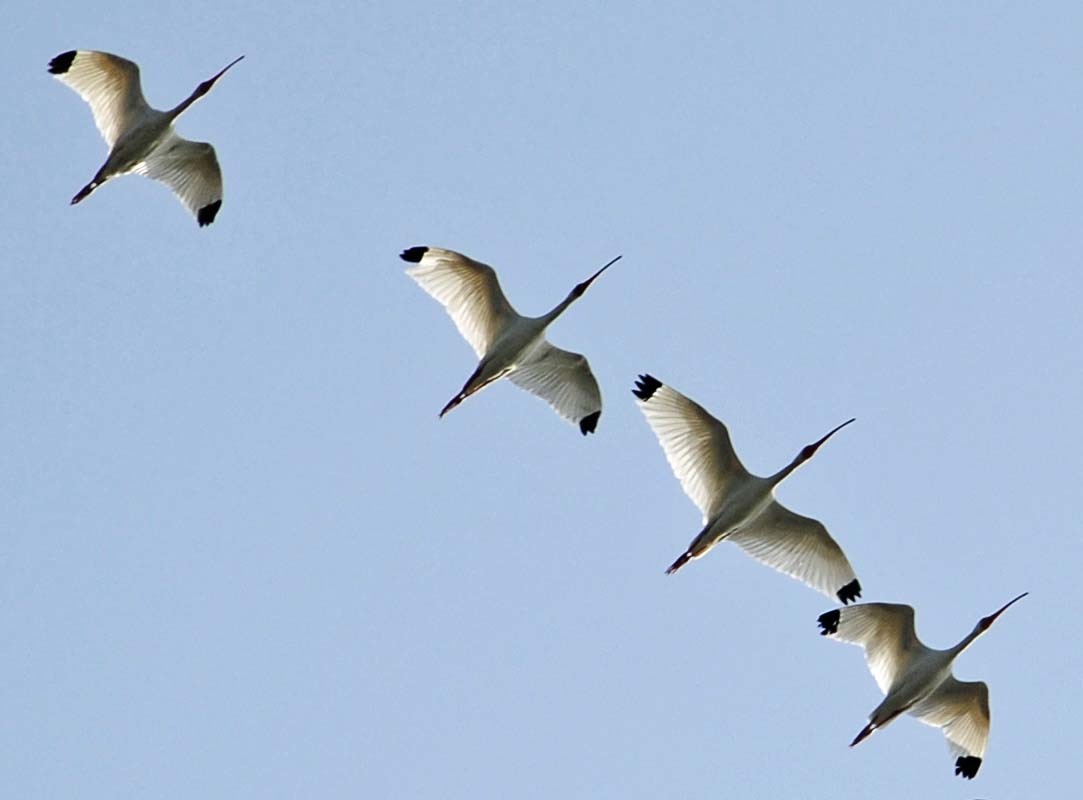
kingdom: Animalia
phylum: Chordata
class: Aves
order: Pelecaniformes
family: Threskiornithidae
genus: Eudocimus
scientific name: Eudocimus albus
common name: White ibis
